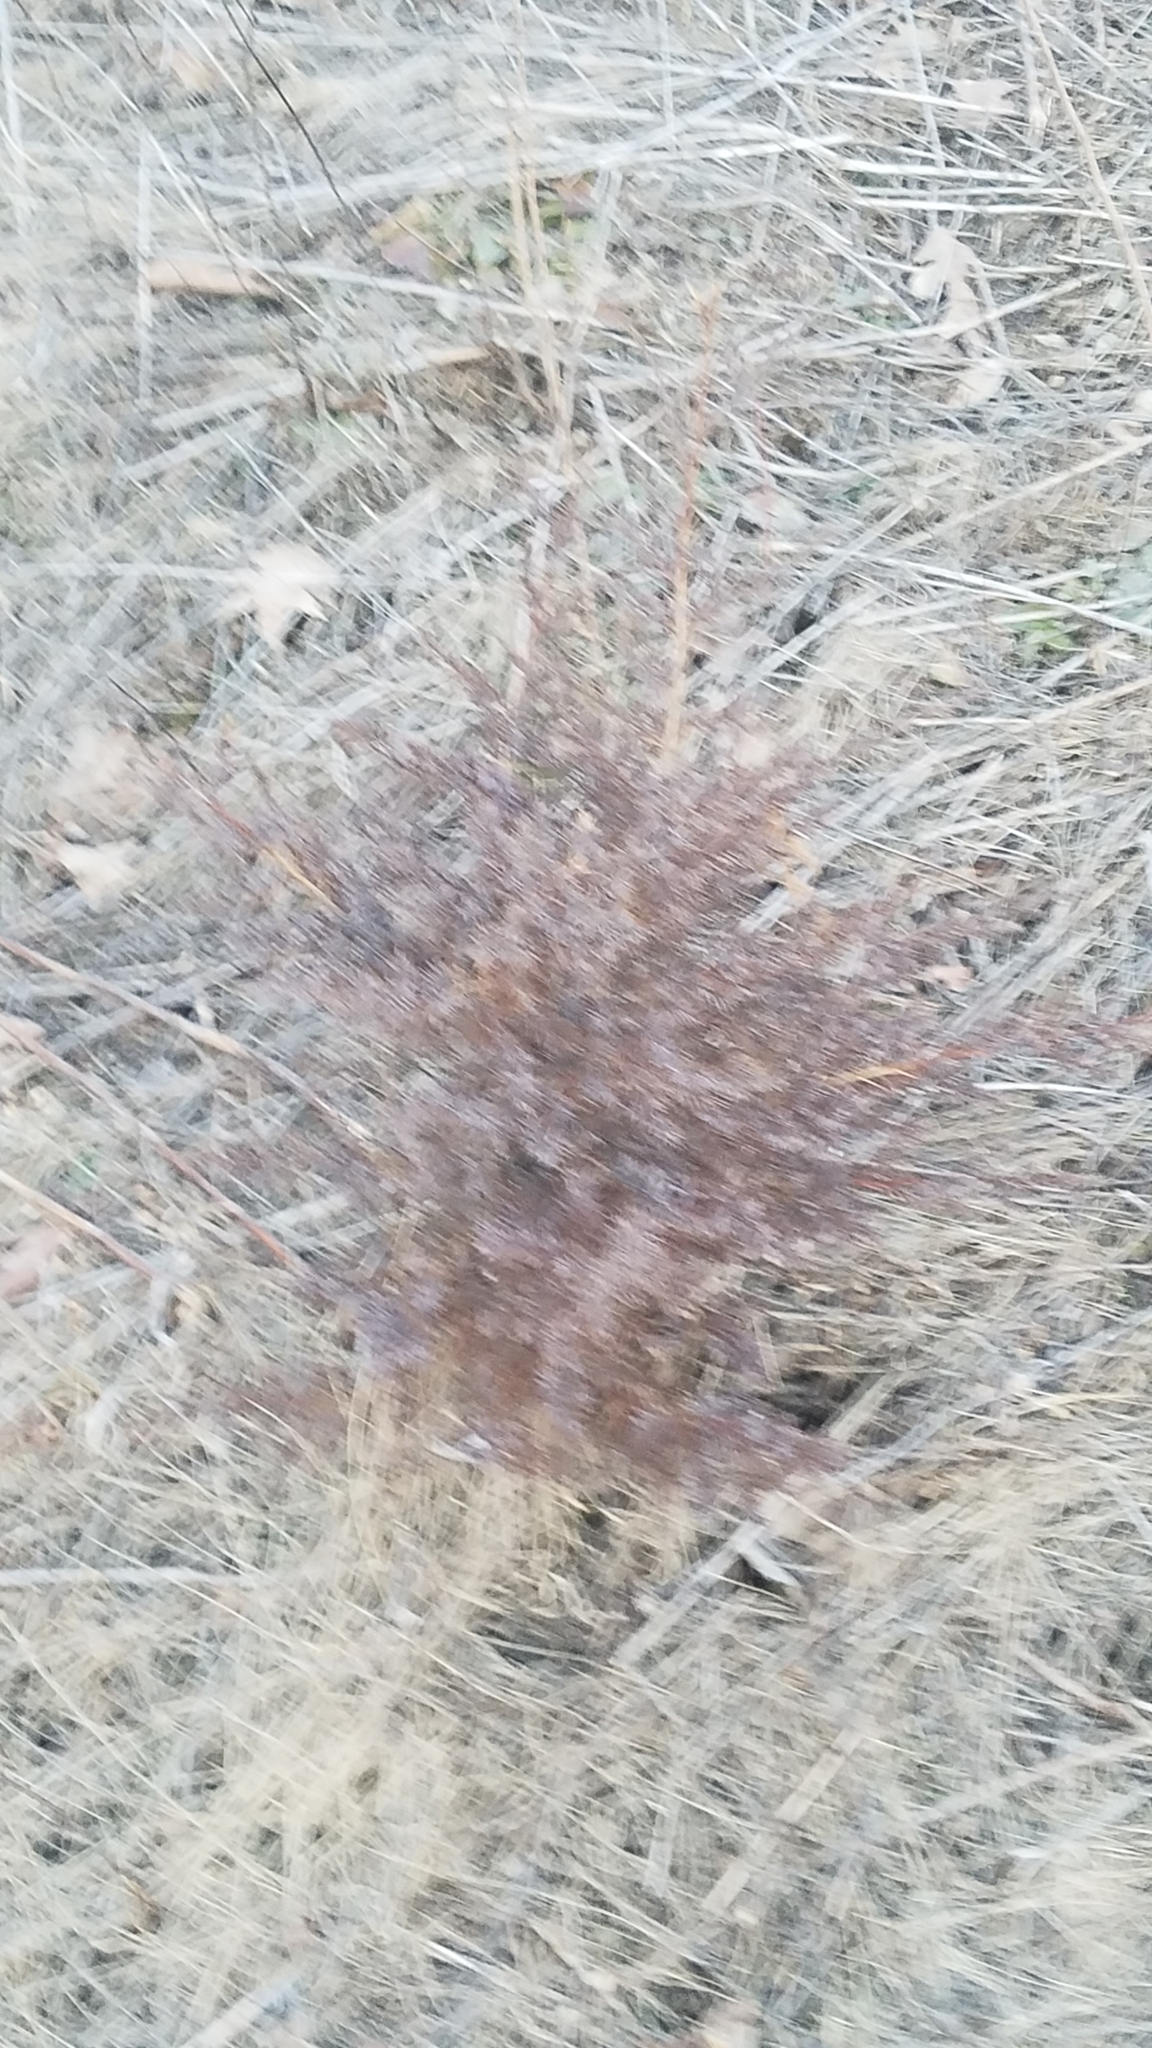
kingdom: Plantae
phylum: Tracheophyta
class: Pinopsida
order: Pinales
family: Cupressaceae
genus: Juniperus
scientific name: Juniperus virginiana
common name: Red juniper
